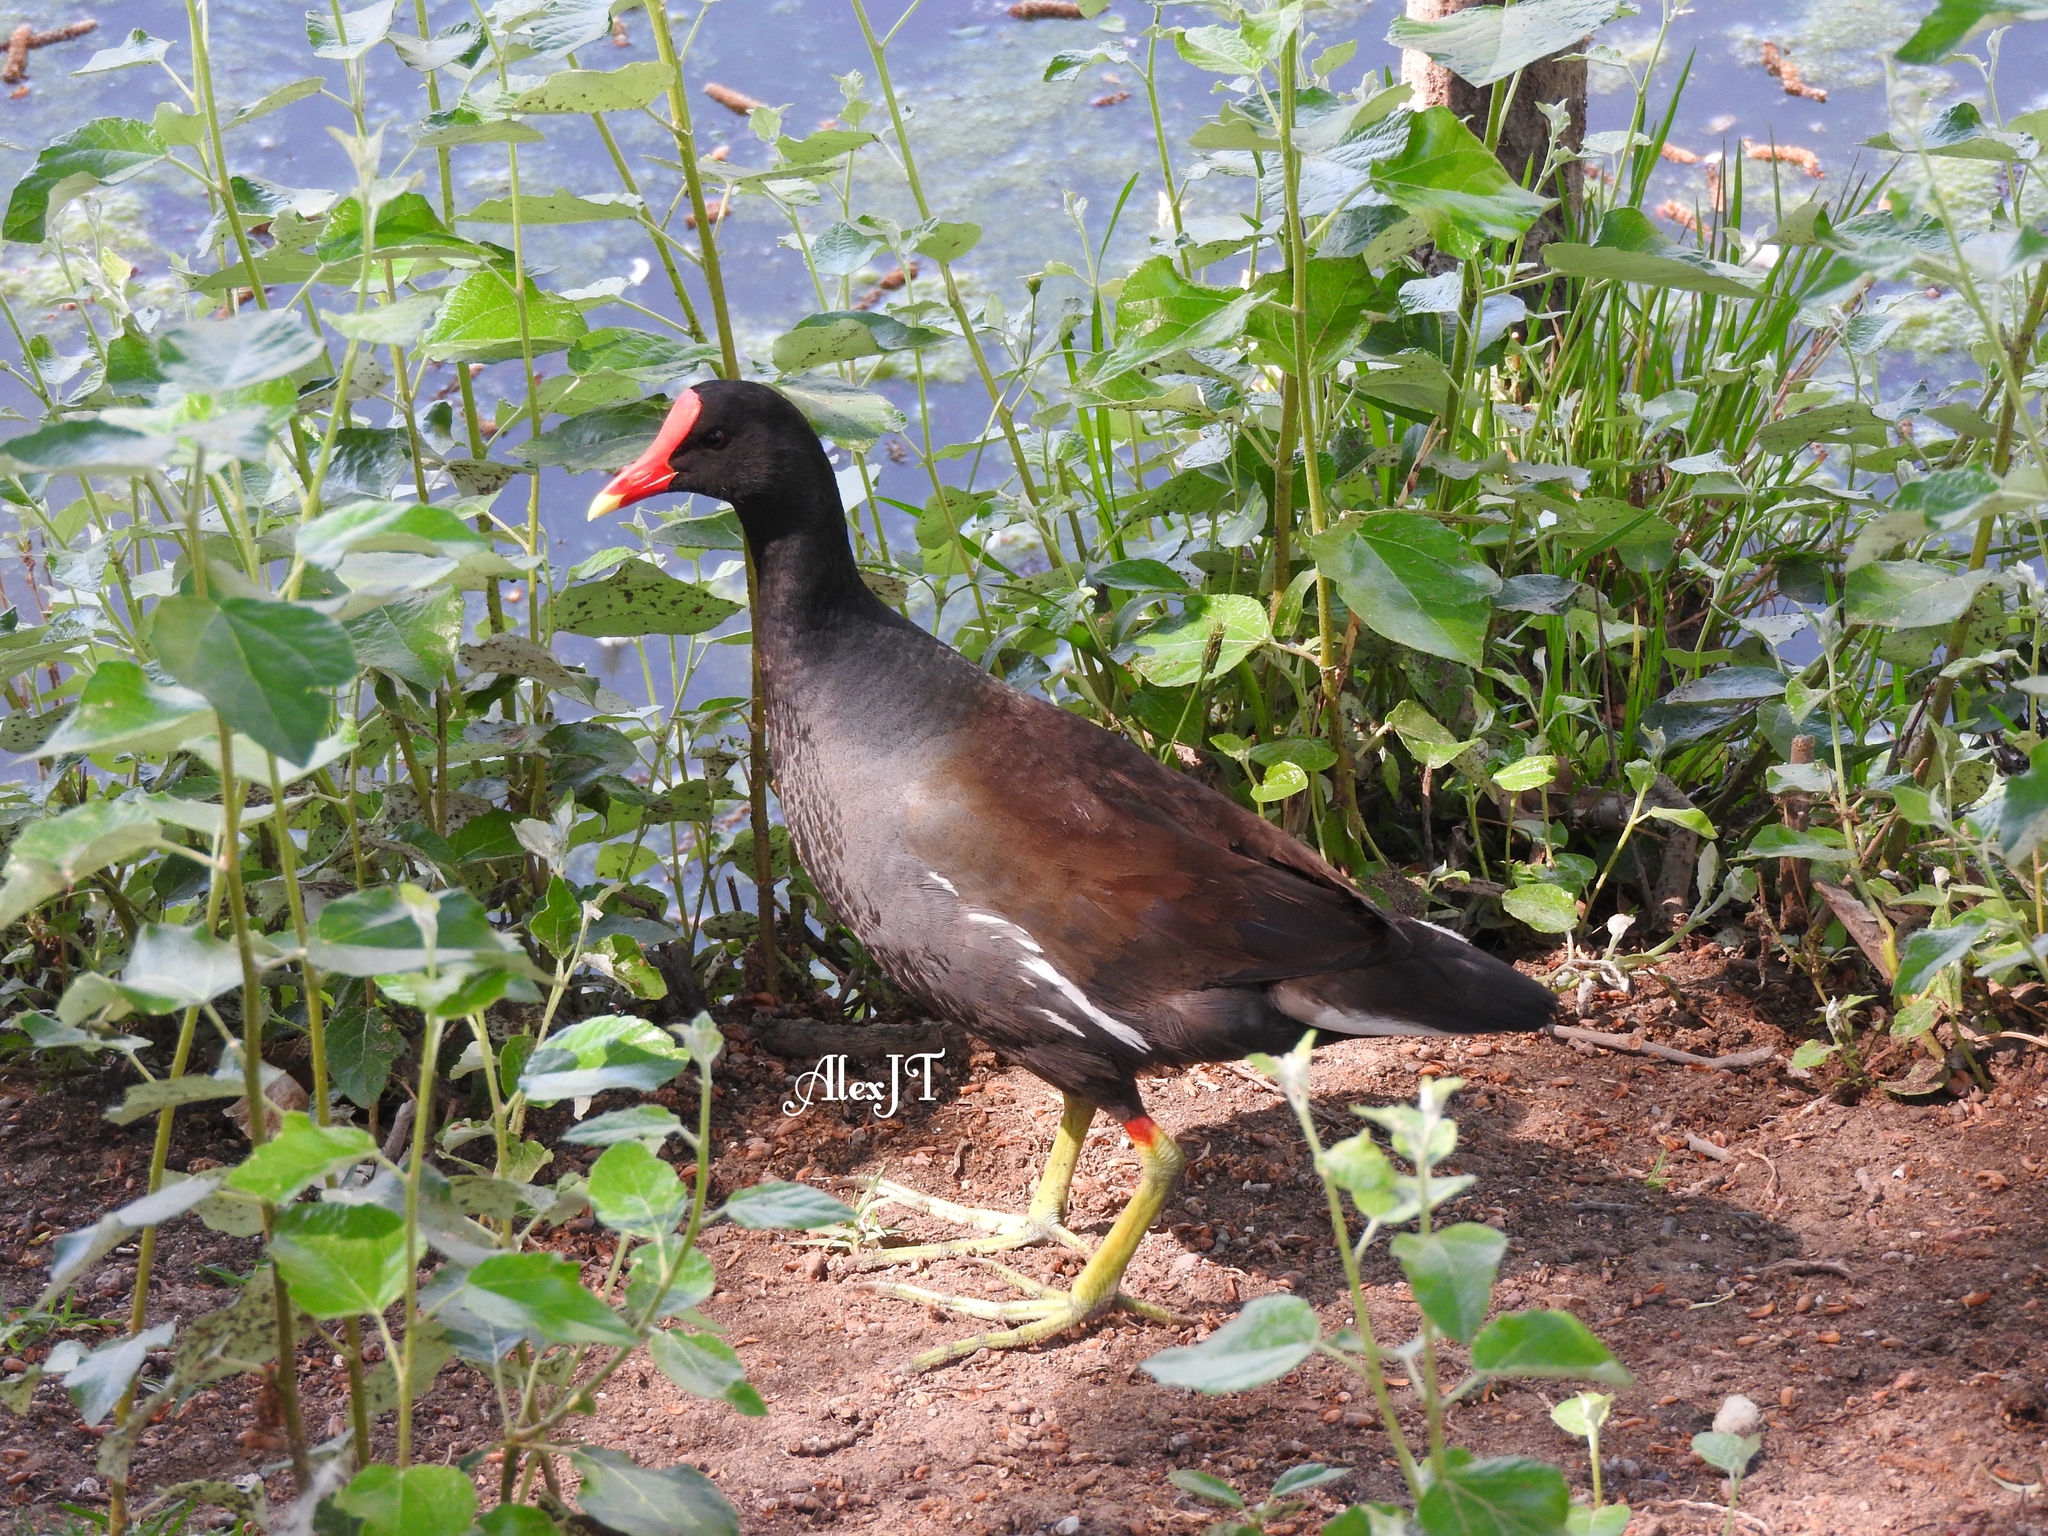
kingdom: Animalia
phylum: Chordata
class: Aves
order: Gruiformes
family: Rallidae
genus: Gallinula
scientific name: Gallinula chloropus
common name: Common moorhen
